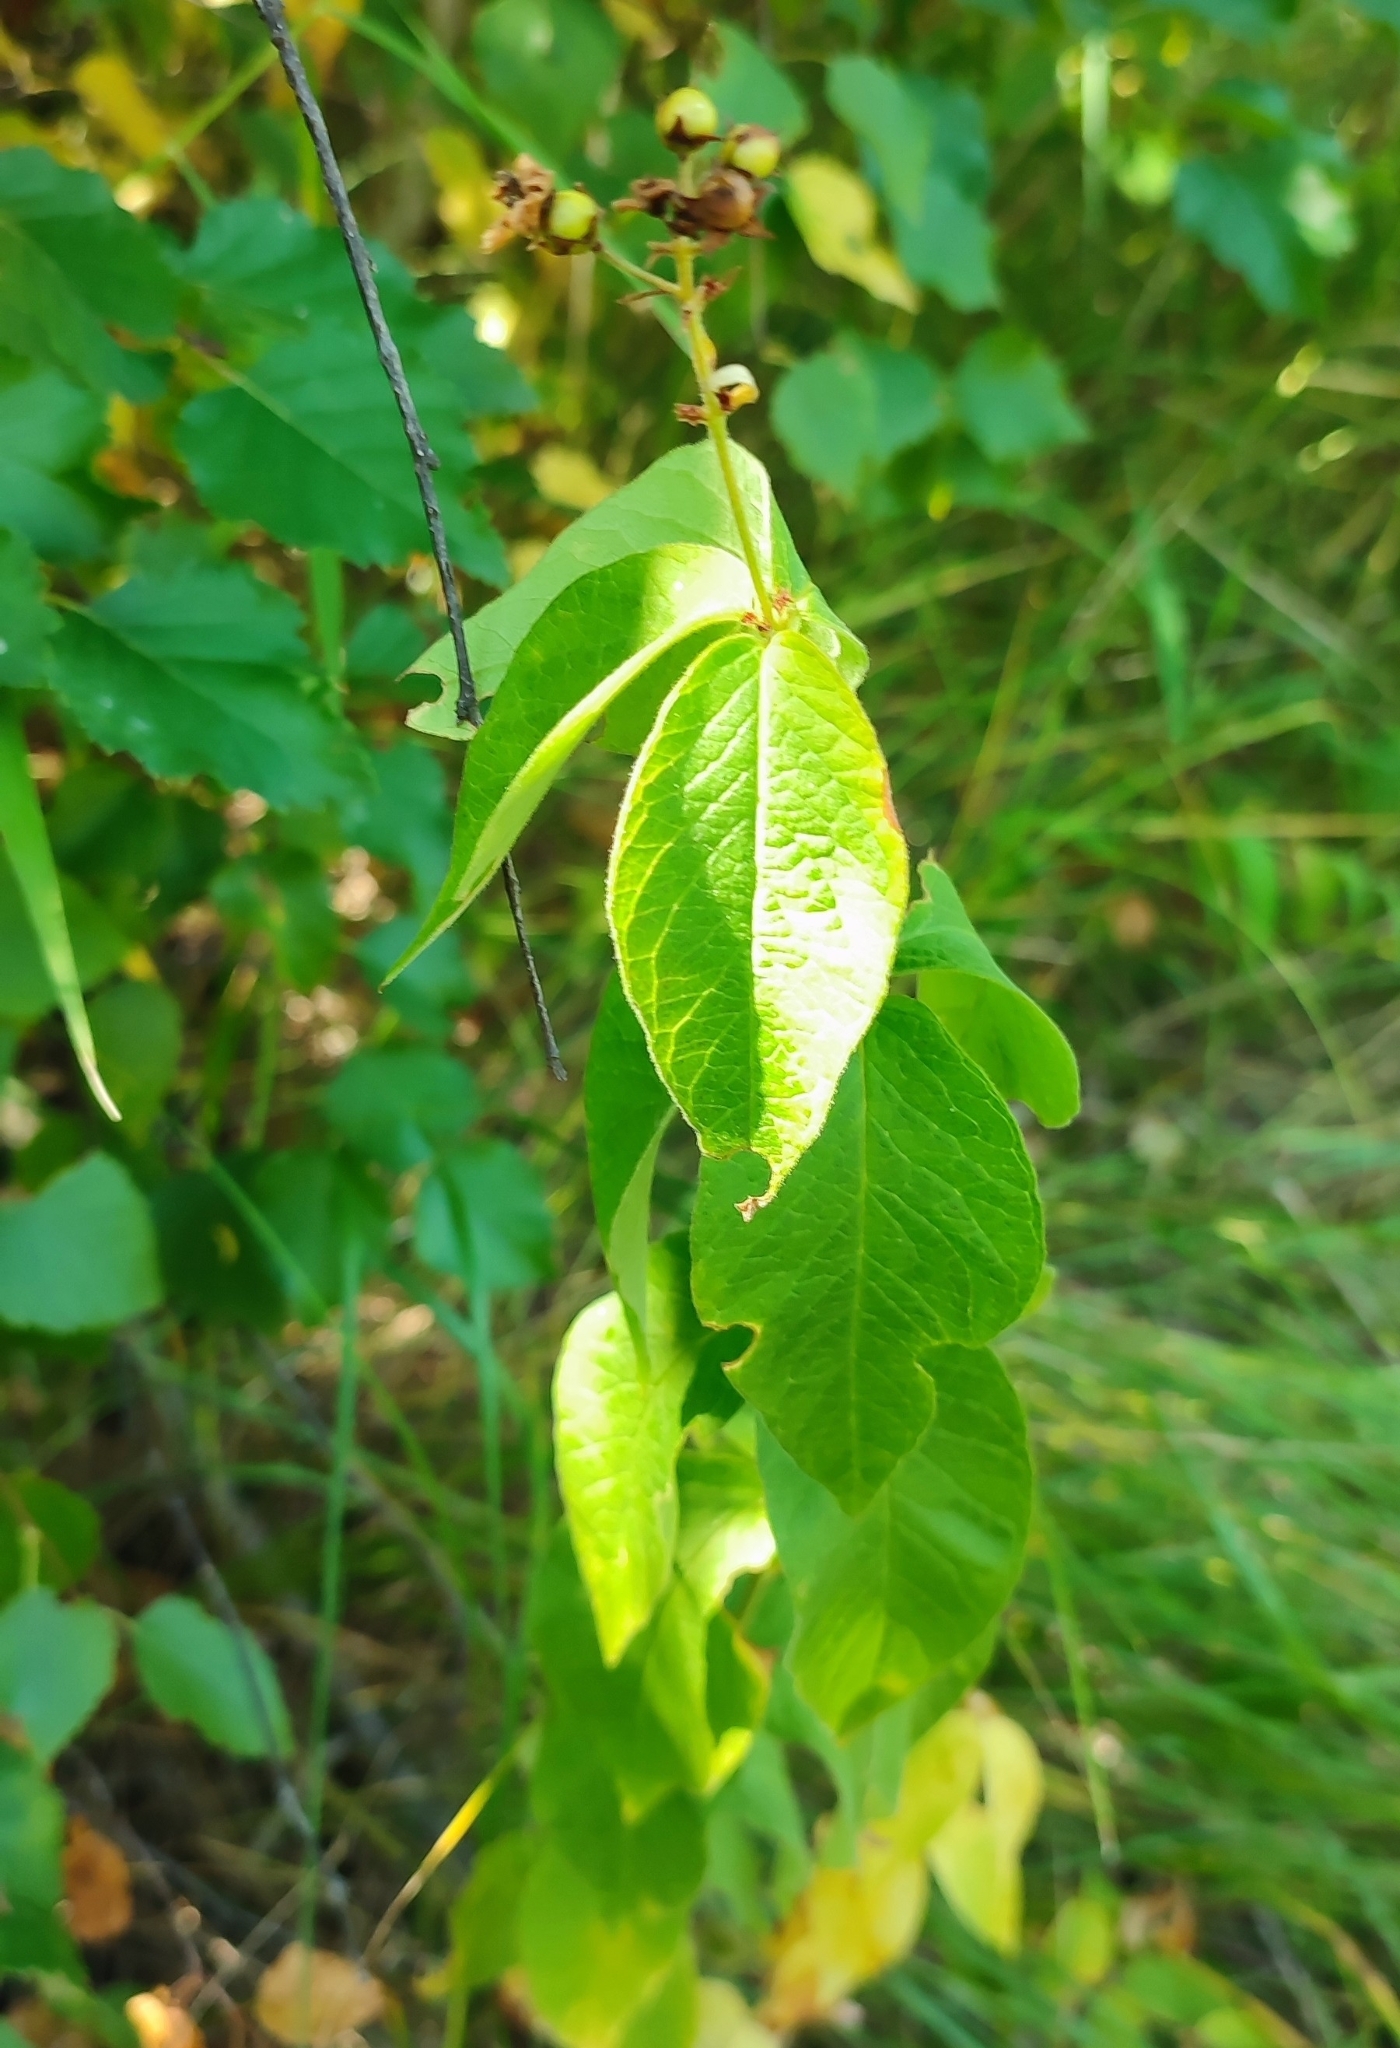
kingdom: Plantae
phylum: Tracheophyta
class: Magnoliopsida
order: Ericales
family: Primulaceae
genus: Lysimachia
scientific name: Lysimachia vulgaris
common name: Yellow loosestrife
